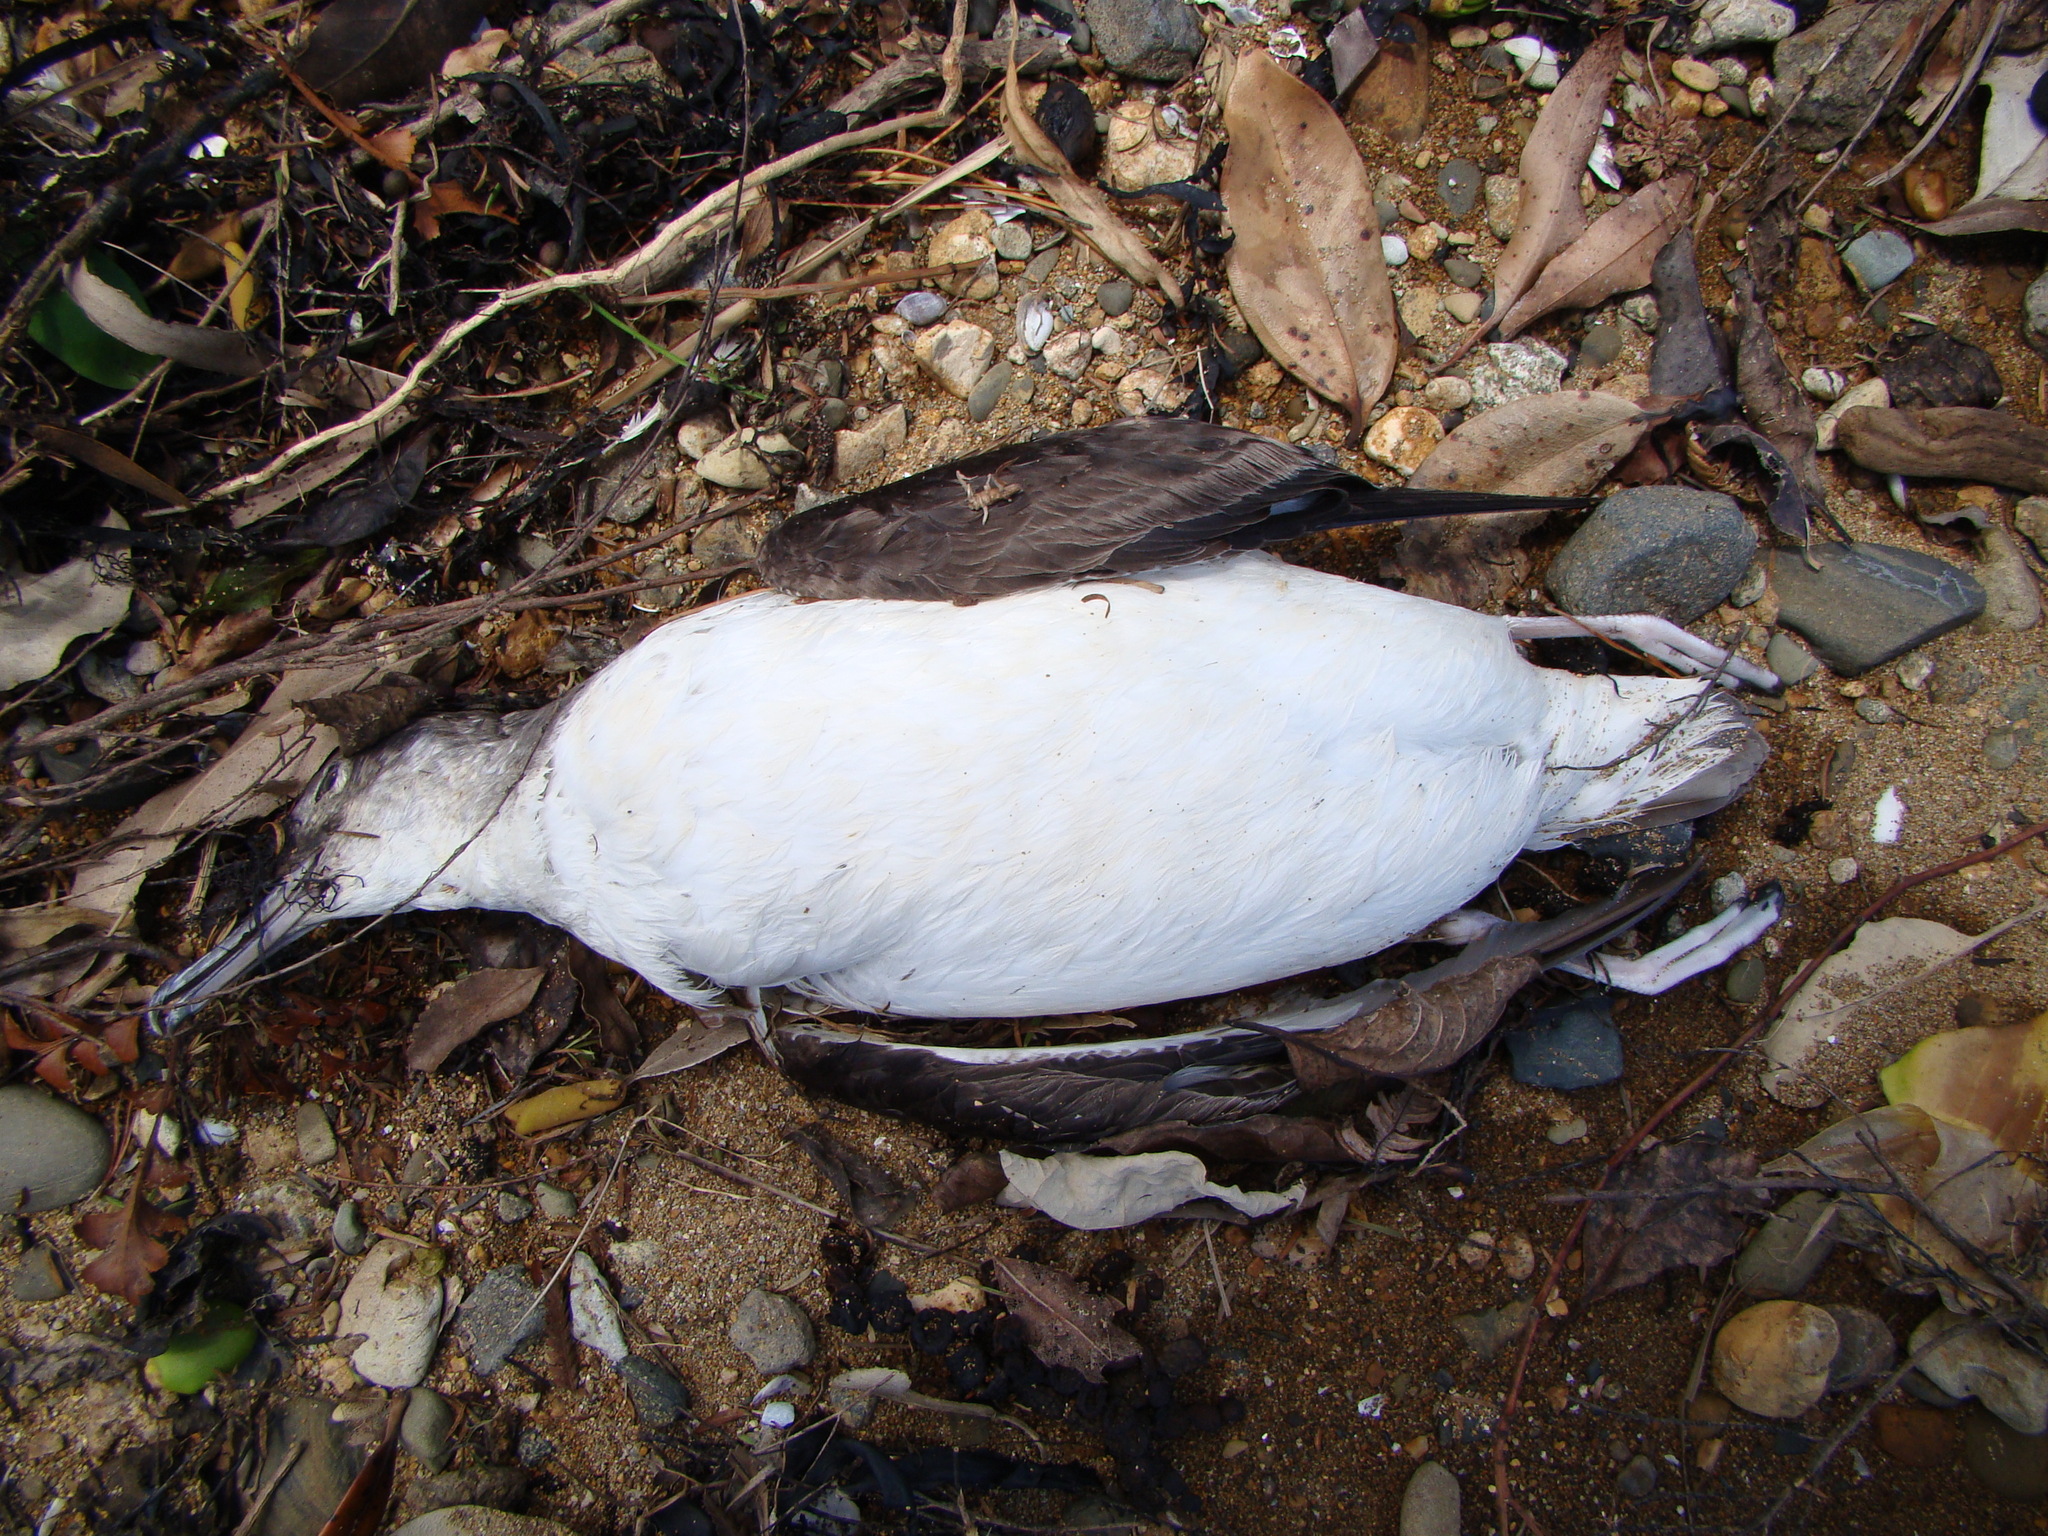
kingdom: Animalia
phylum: Chordata
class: Aves
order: Procellariiformes
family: Procellariidae
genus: Puffinus
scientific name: Puffinus gavia
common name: Fluttering shearwater
